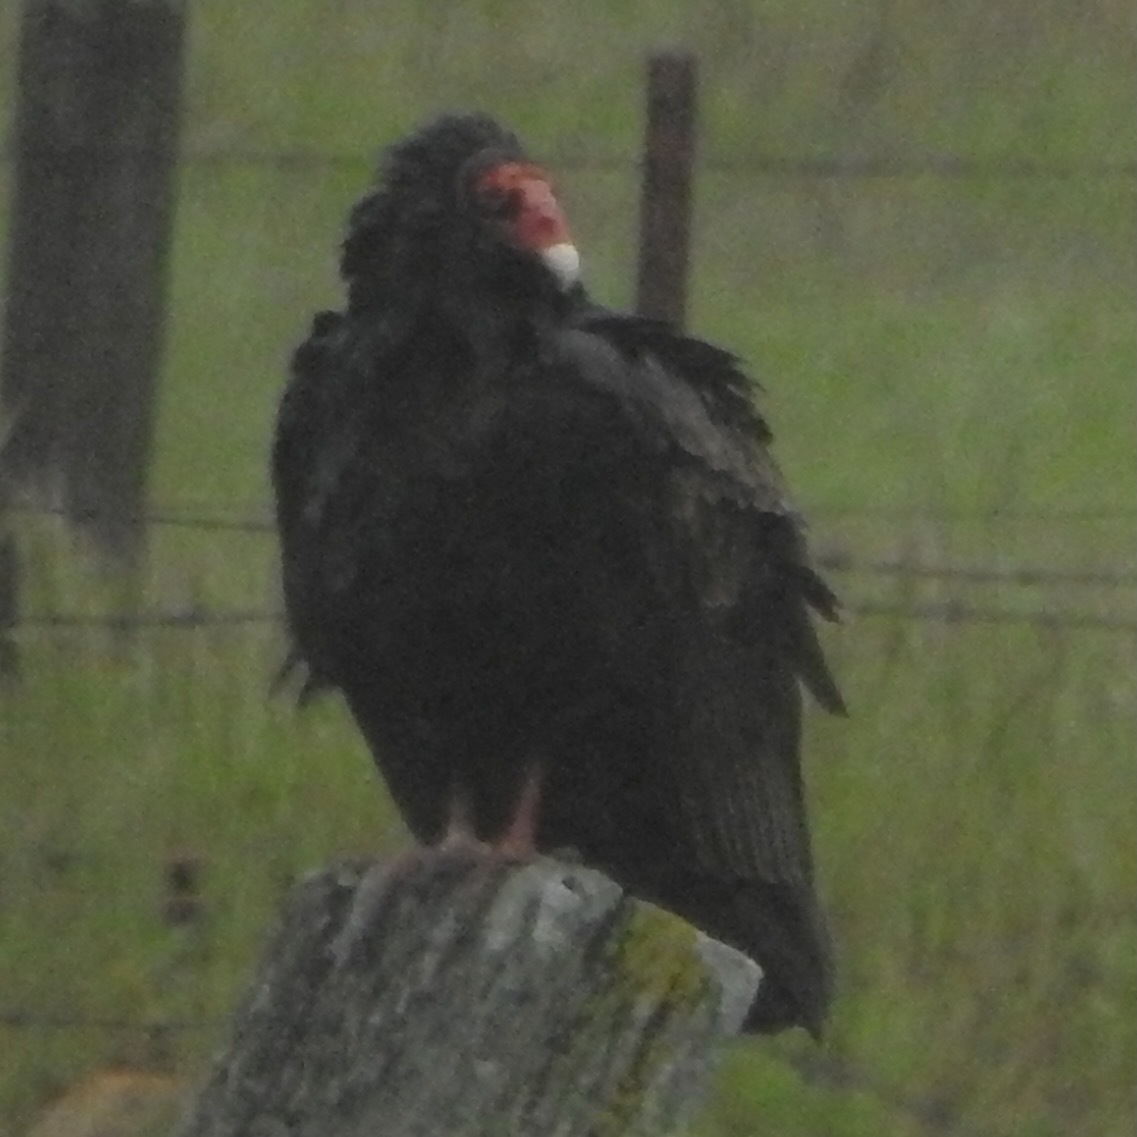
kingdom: Animalia
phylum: Chordata
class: Aves
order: Accipitriformes
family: Cathartidae
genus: Cathartes
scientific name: Cathartes aura
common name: Turkey vulture
